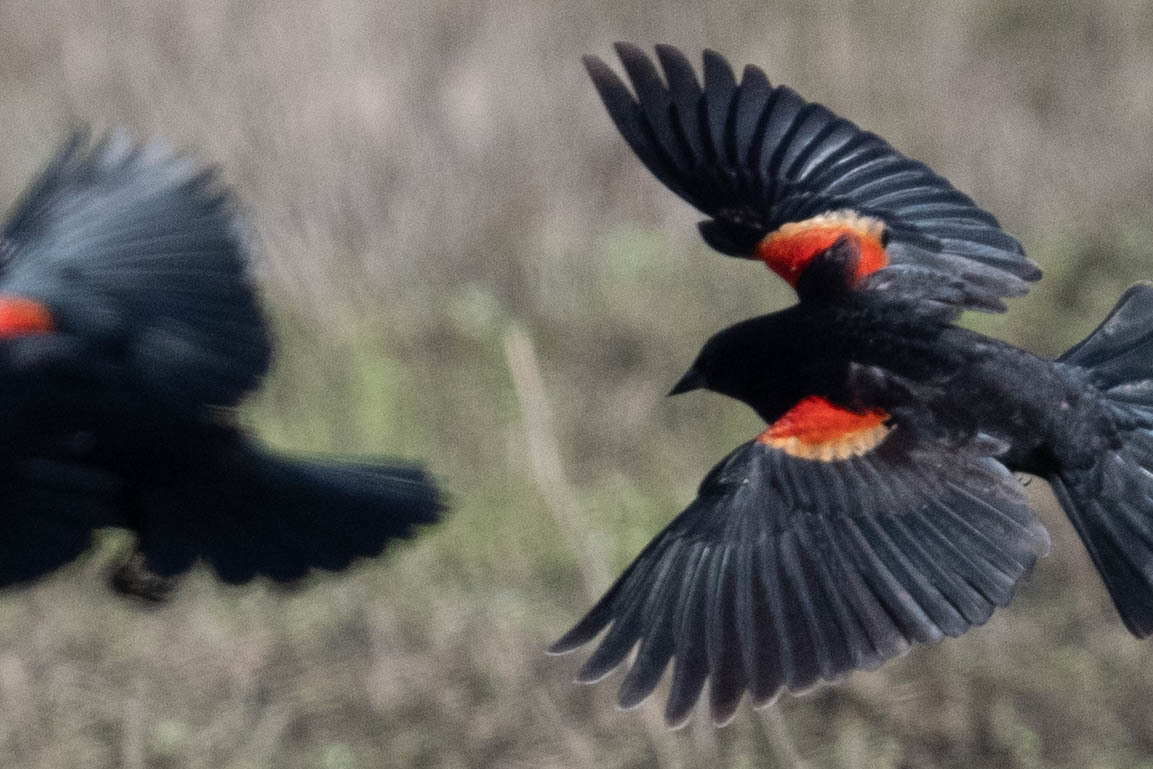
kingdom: Animalia
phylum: Chordata
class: Aves
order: Passeriformes
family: Icteridae
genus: Agelaius
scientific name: Agelaius phoeniceus
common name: Red-winged blackbird
